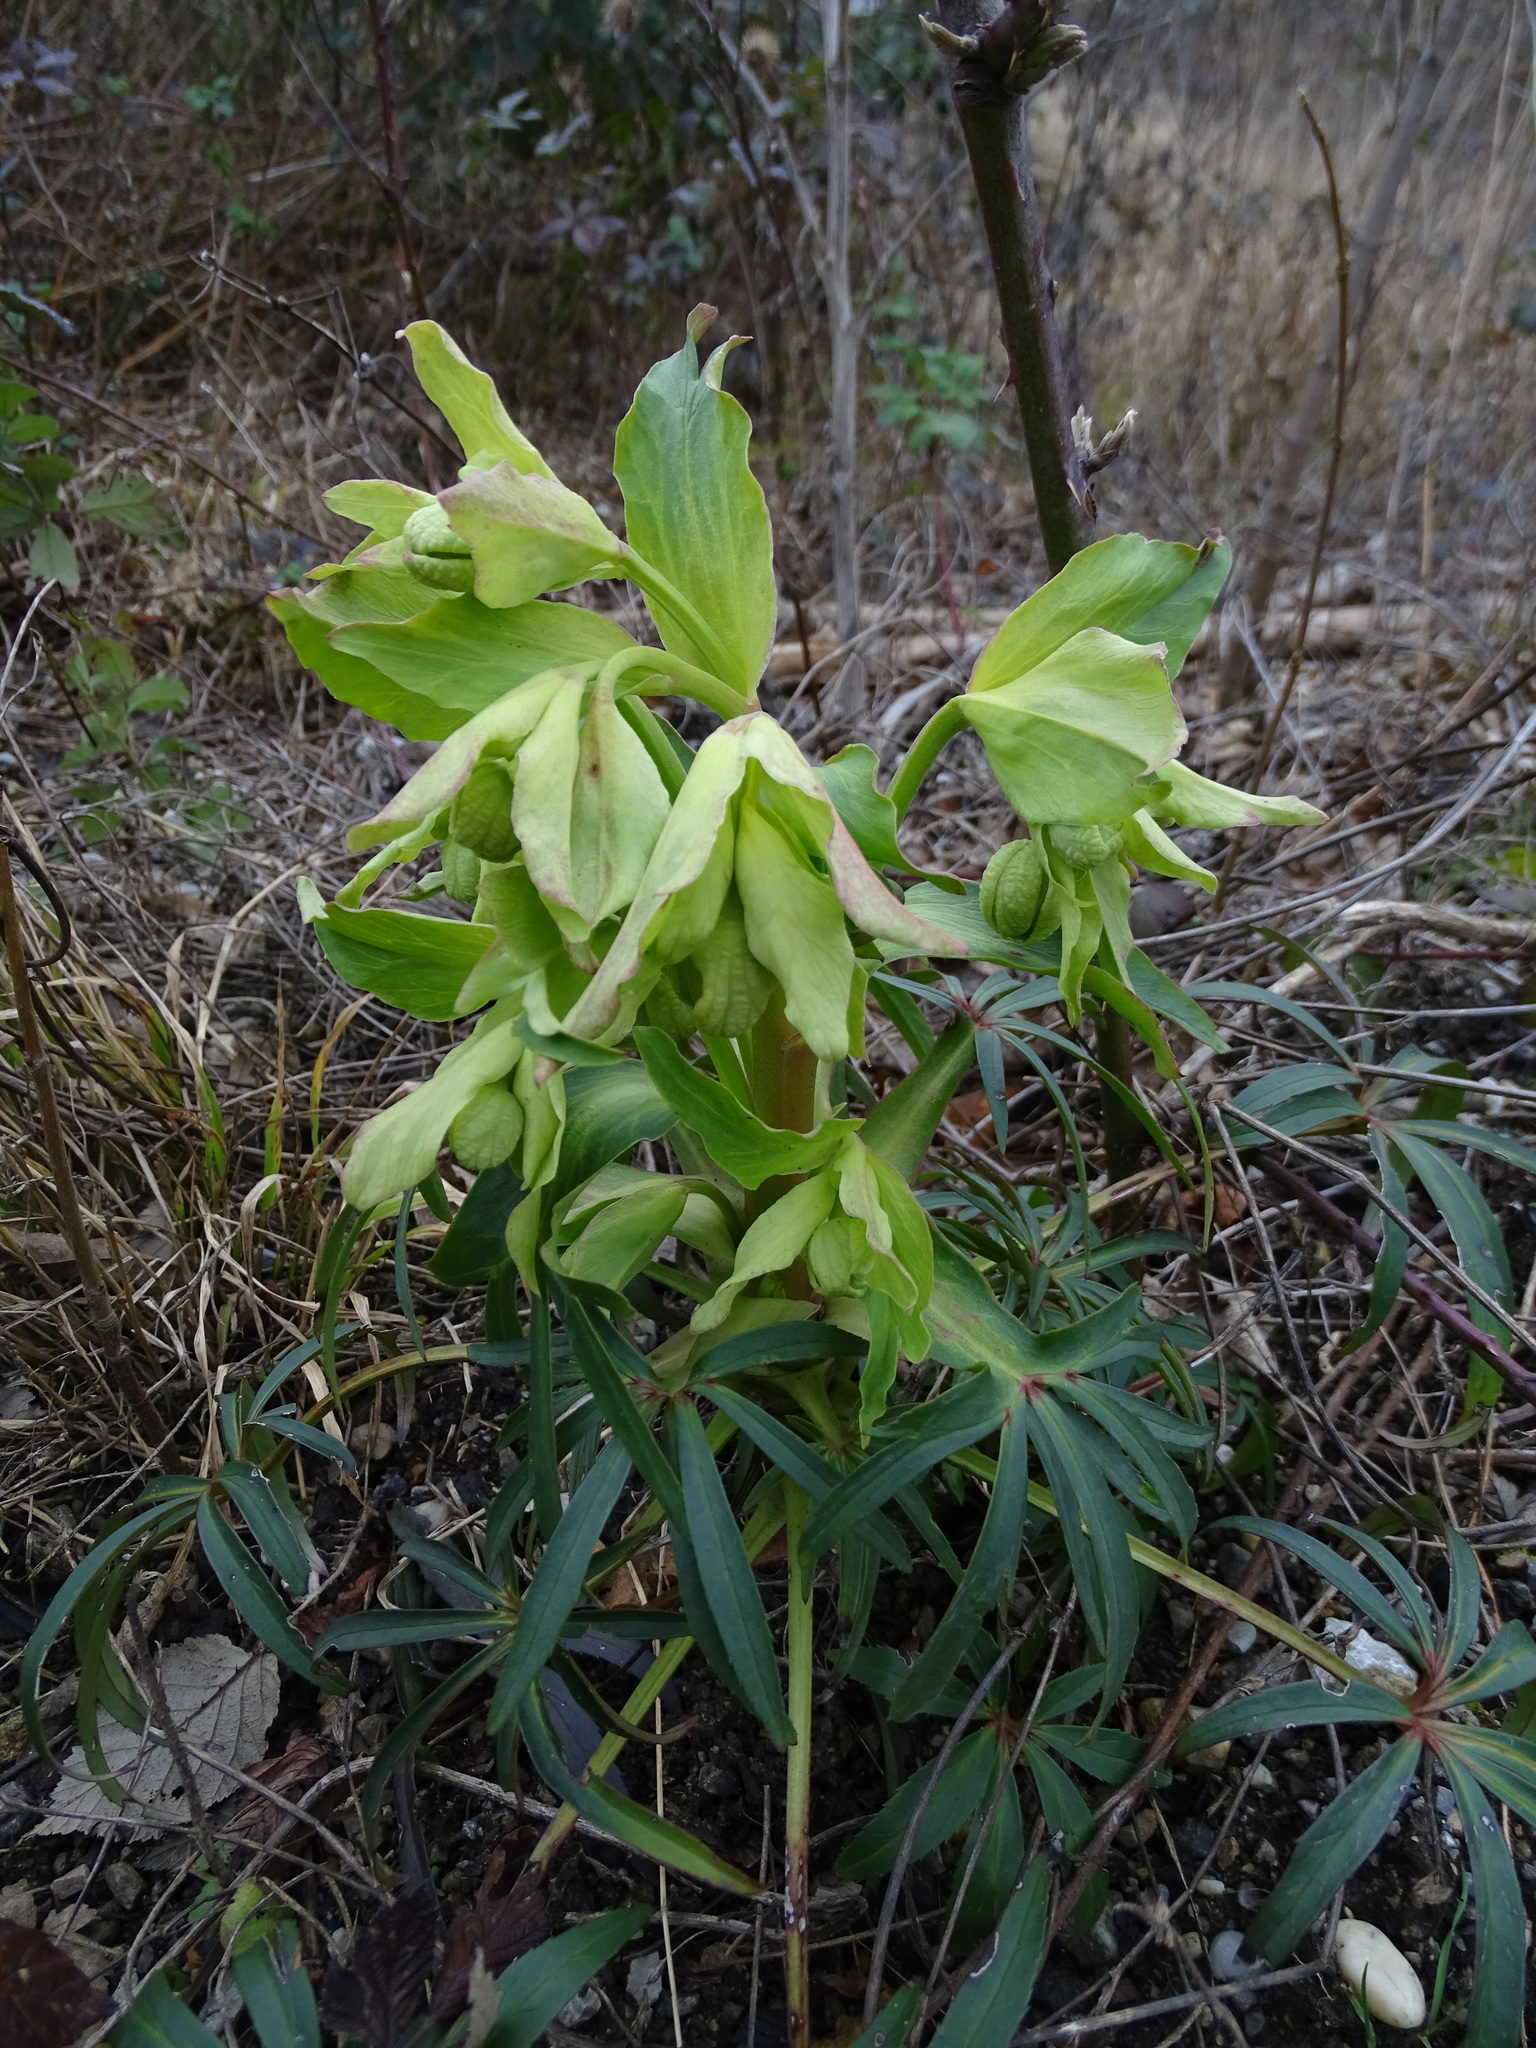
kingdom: Plantae
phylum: Tracheophyta
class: Magnoliopsida
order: Ranunculales
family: Ranunculaceae
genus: Helleborus
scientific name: Helleborus foetidus
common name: Stinking hellebore
